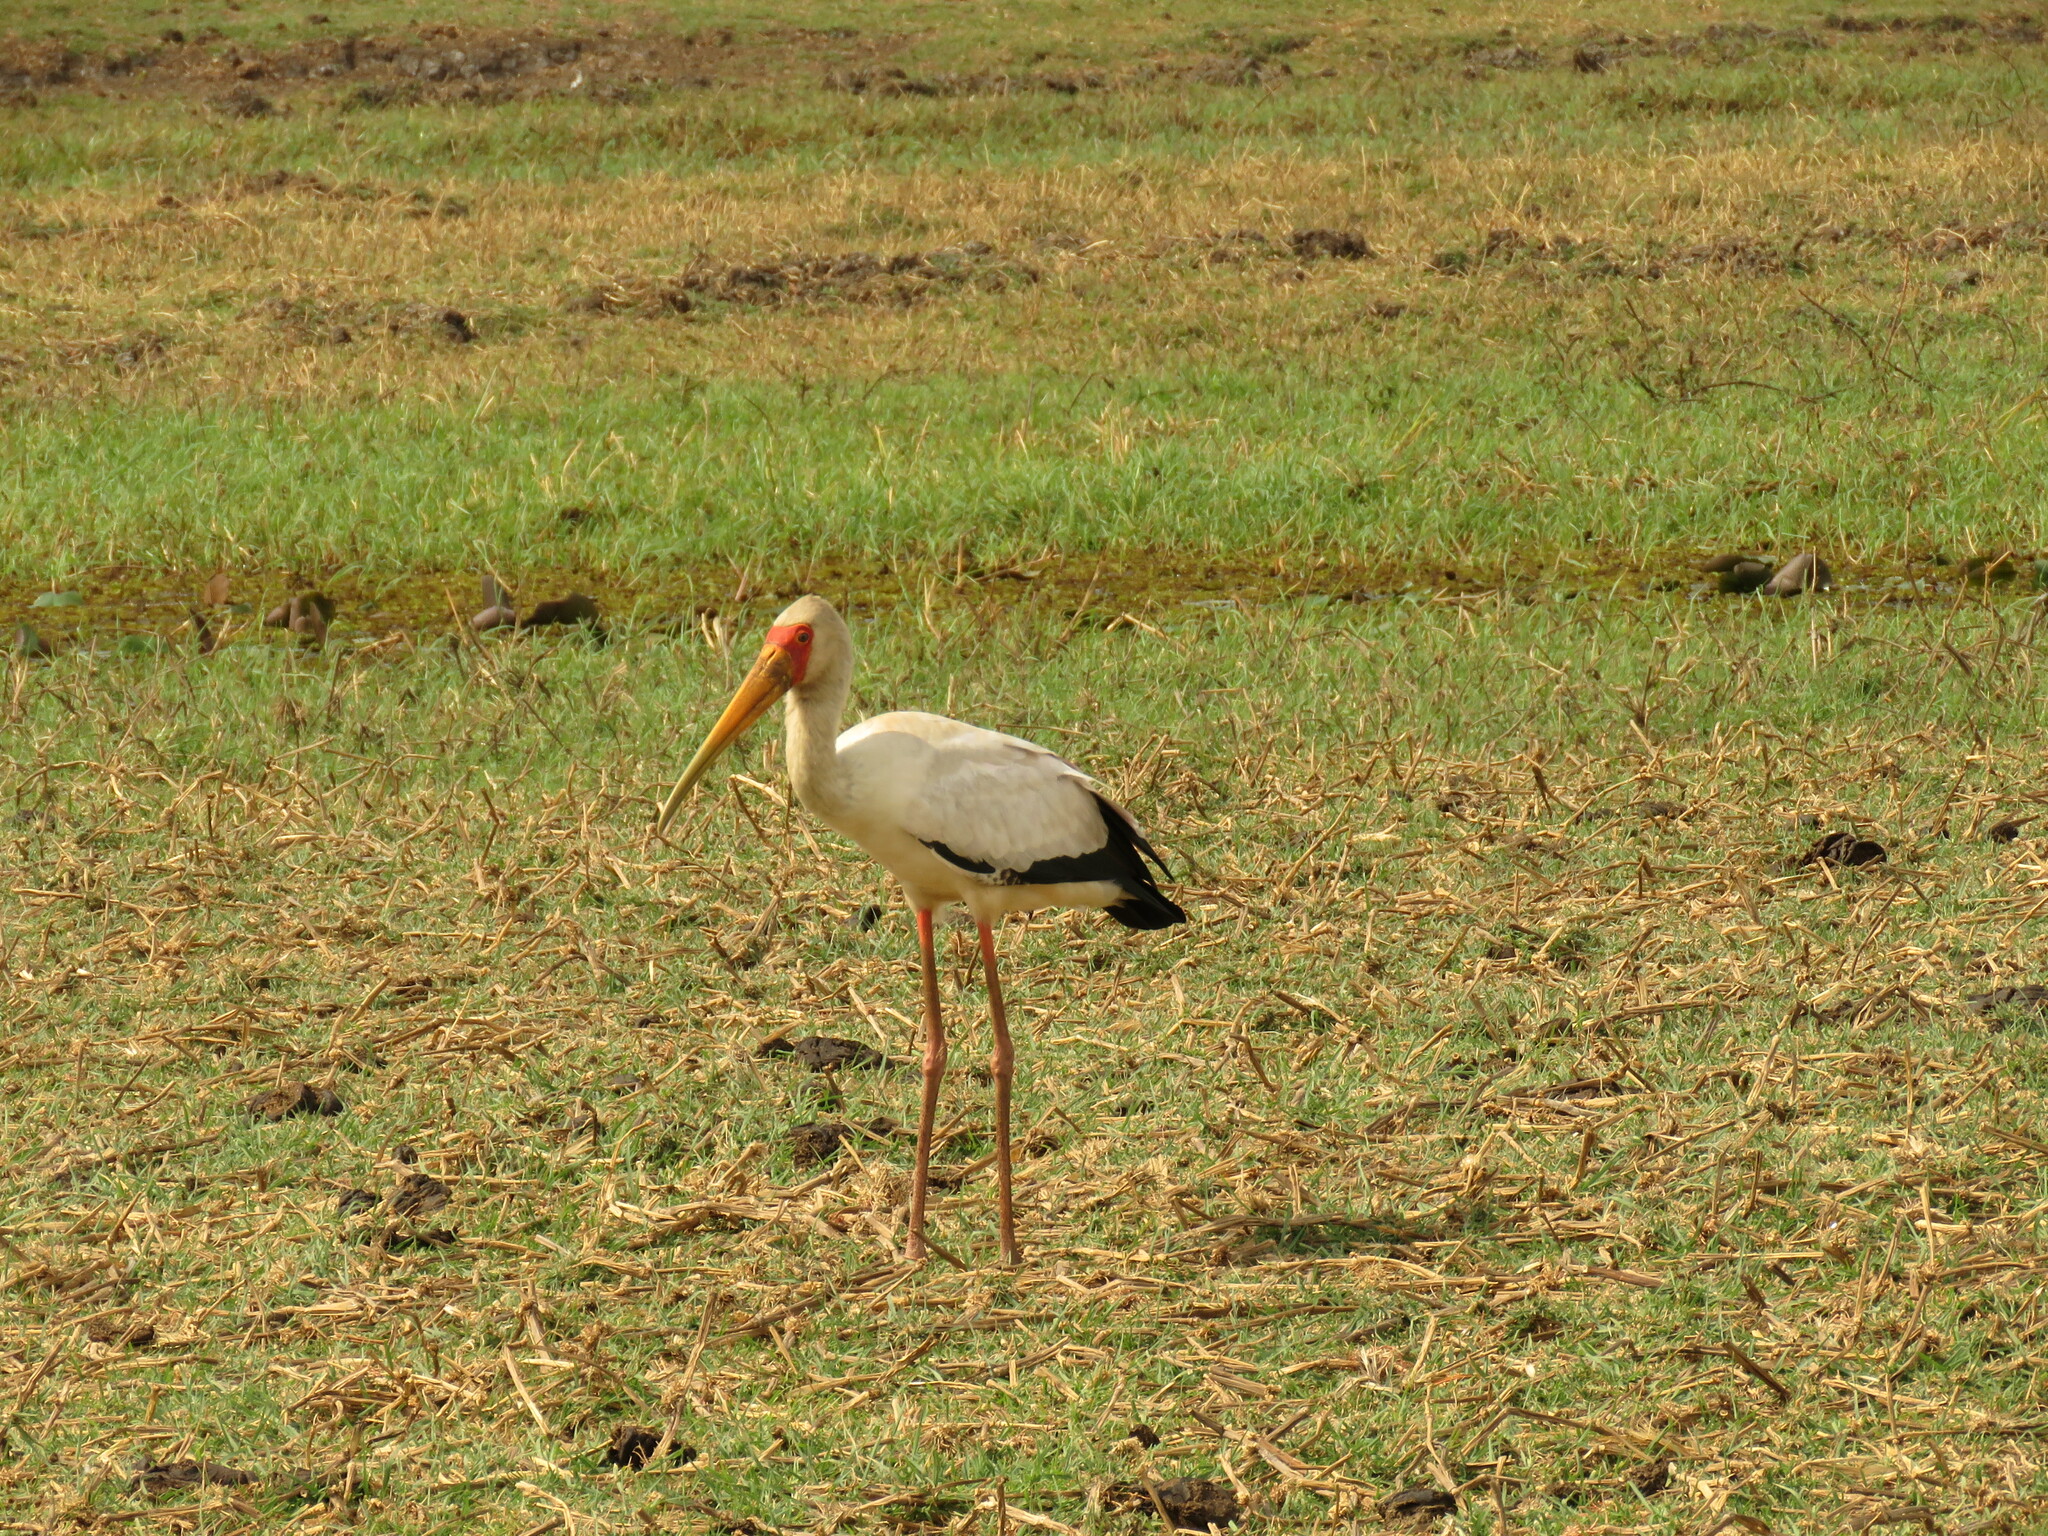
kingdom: Animalia
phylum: Chordata
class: Aves
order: Ciconiiformes
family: Ciconiidae
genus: Mycteria
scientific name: Mycteria ibis
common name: Yellow-billed stork
